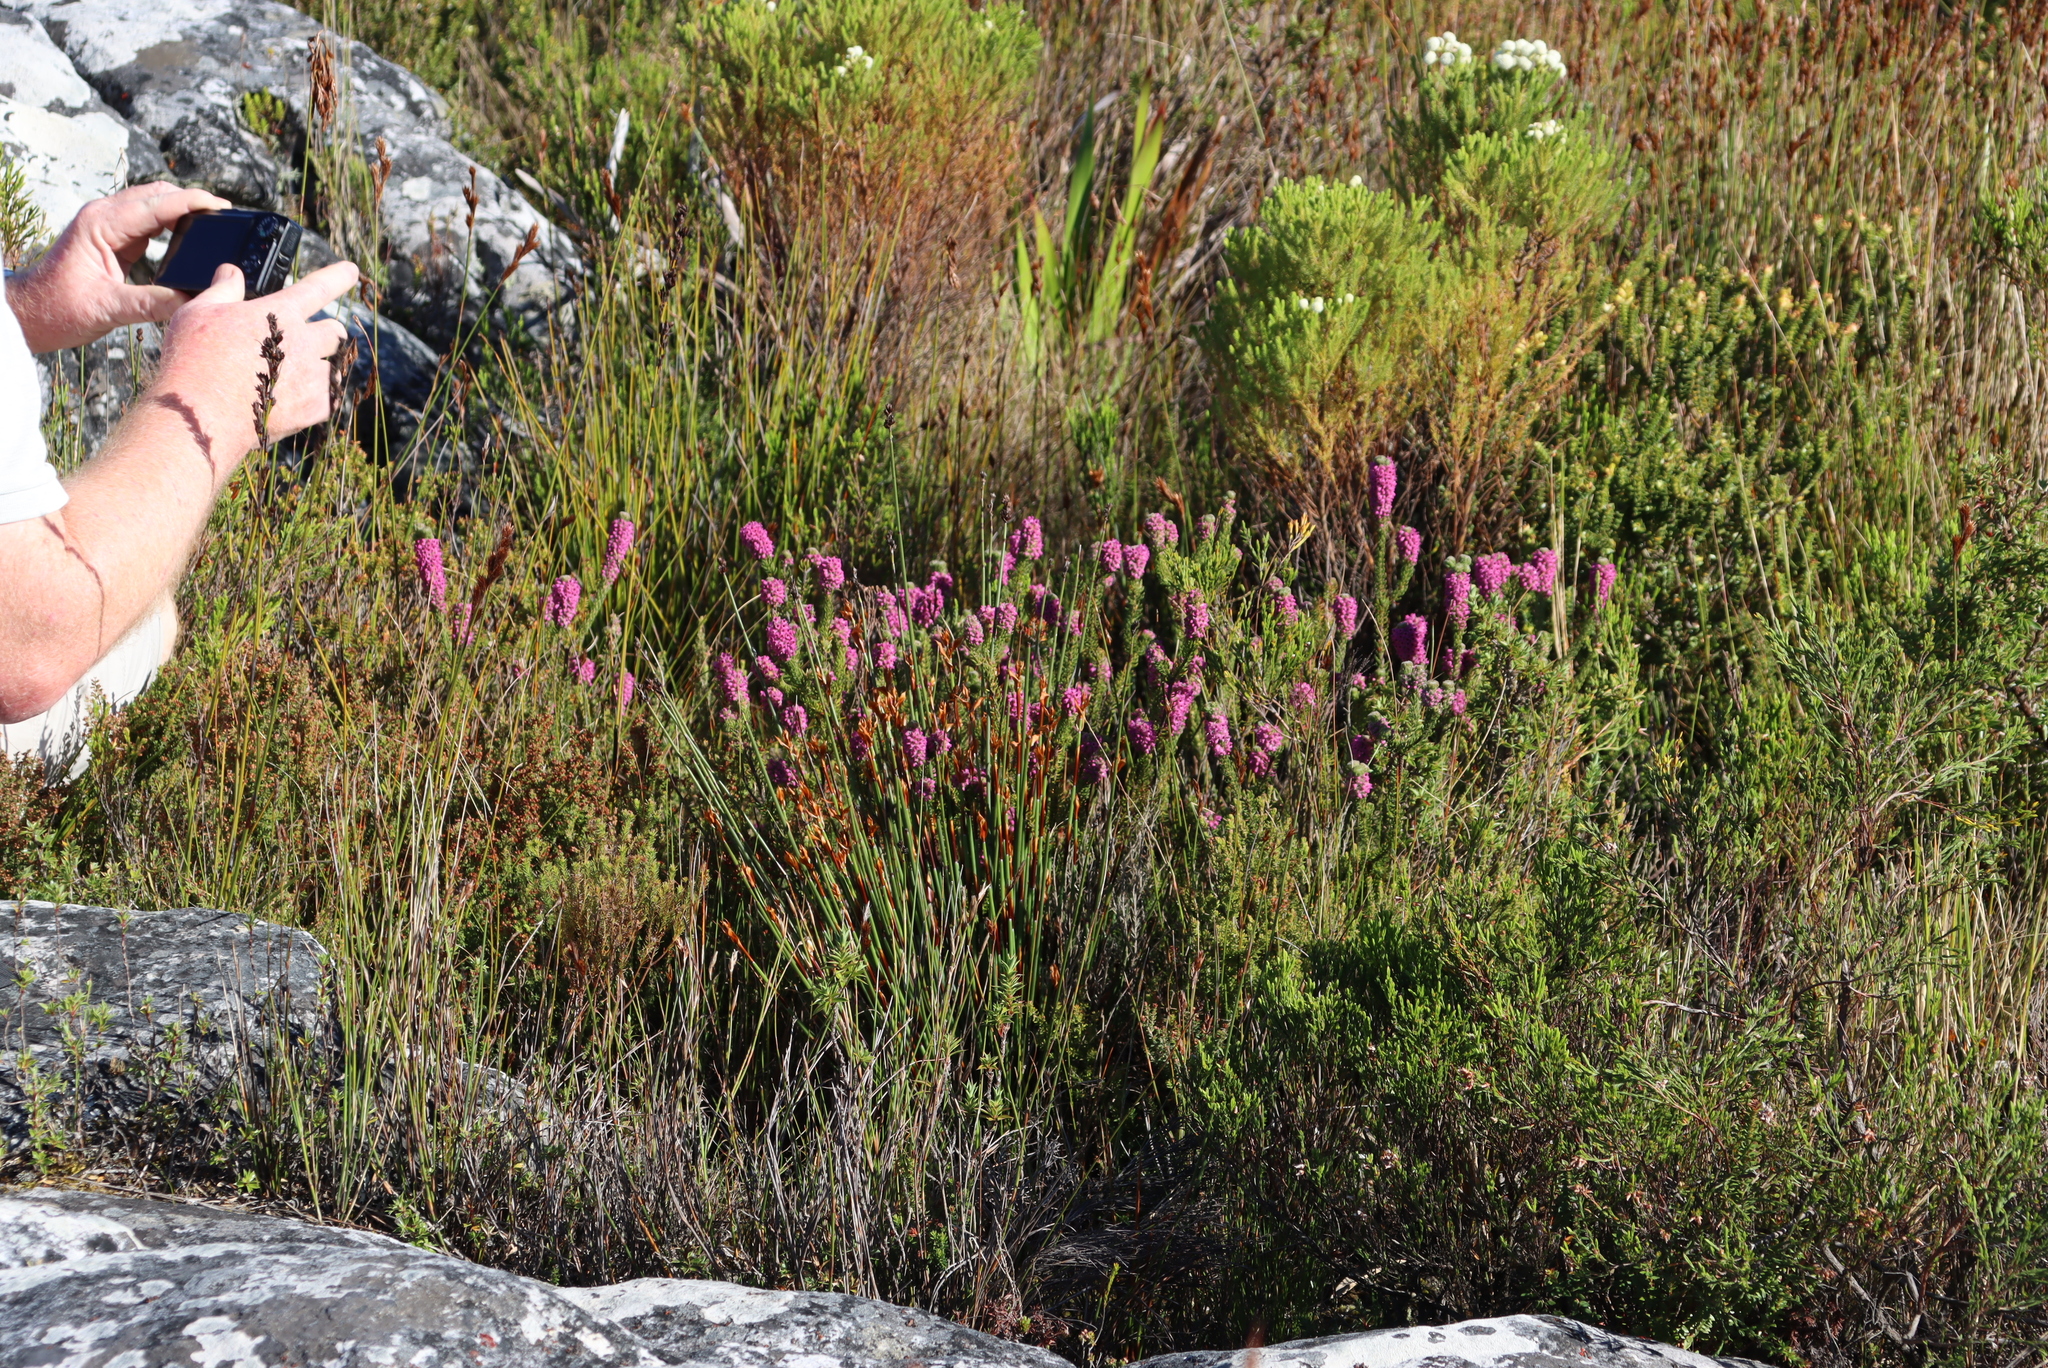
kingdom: Plantae
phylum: Tracheophyta
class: Magnoliopsida
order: Ericales
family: Ericaceae
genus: Erica
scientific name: Erica empetrina
